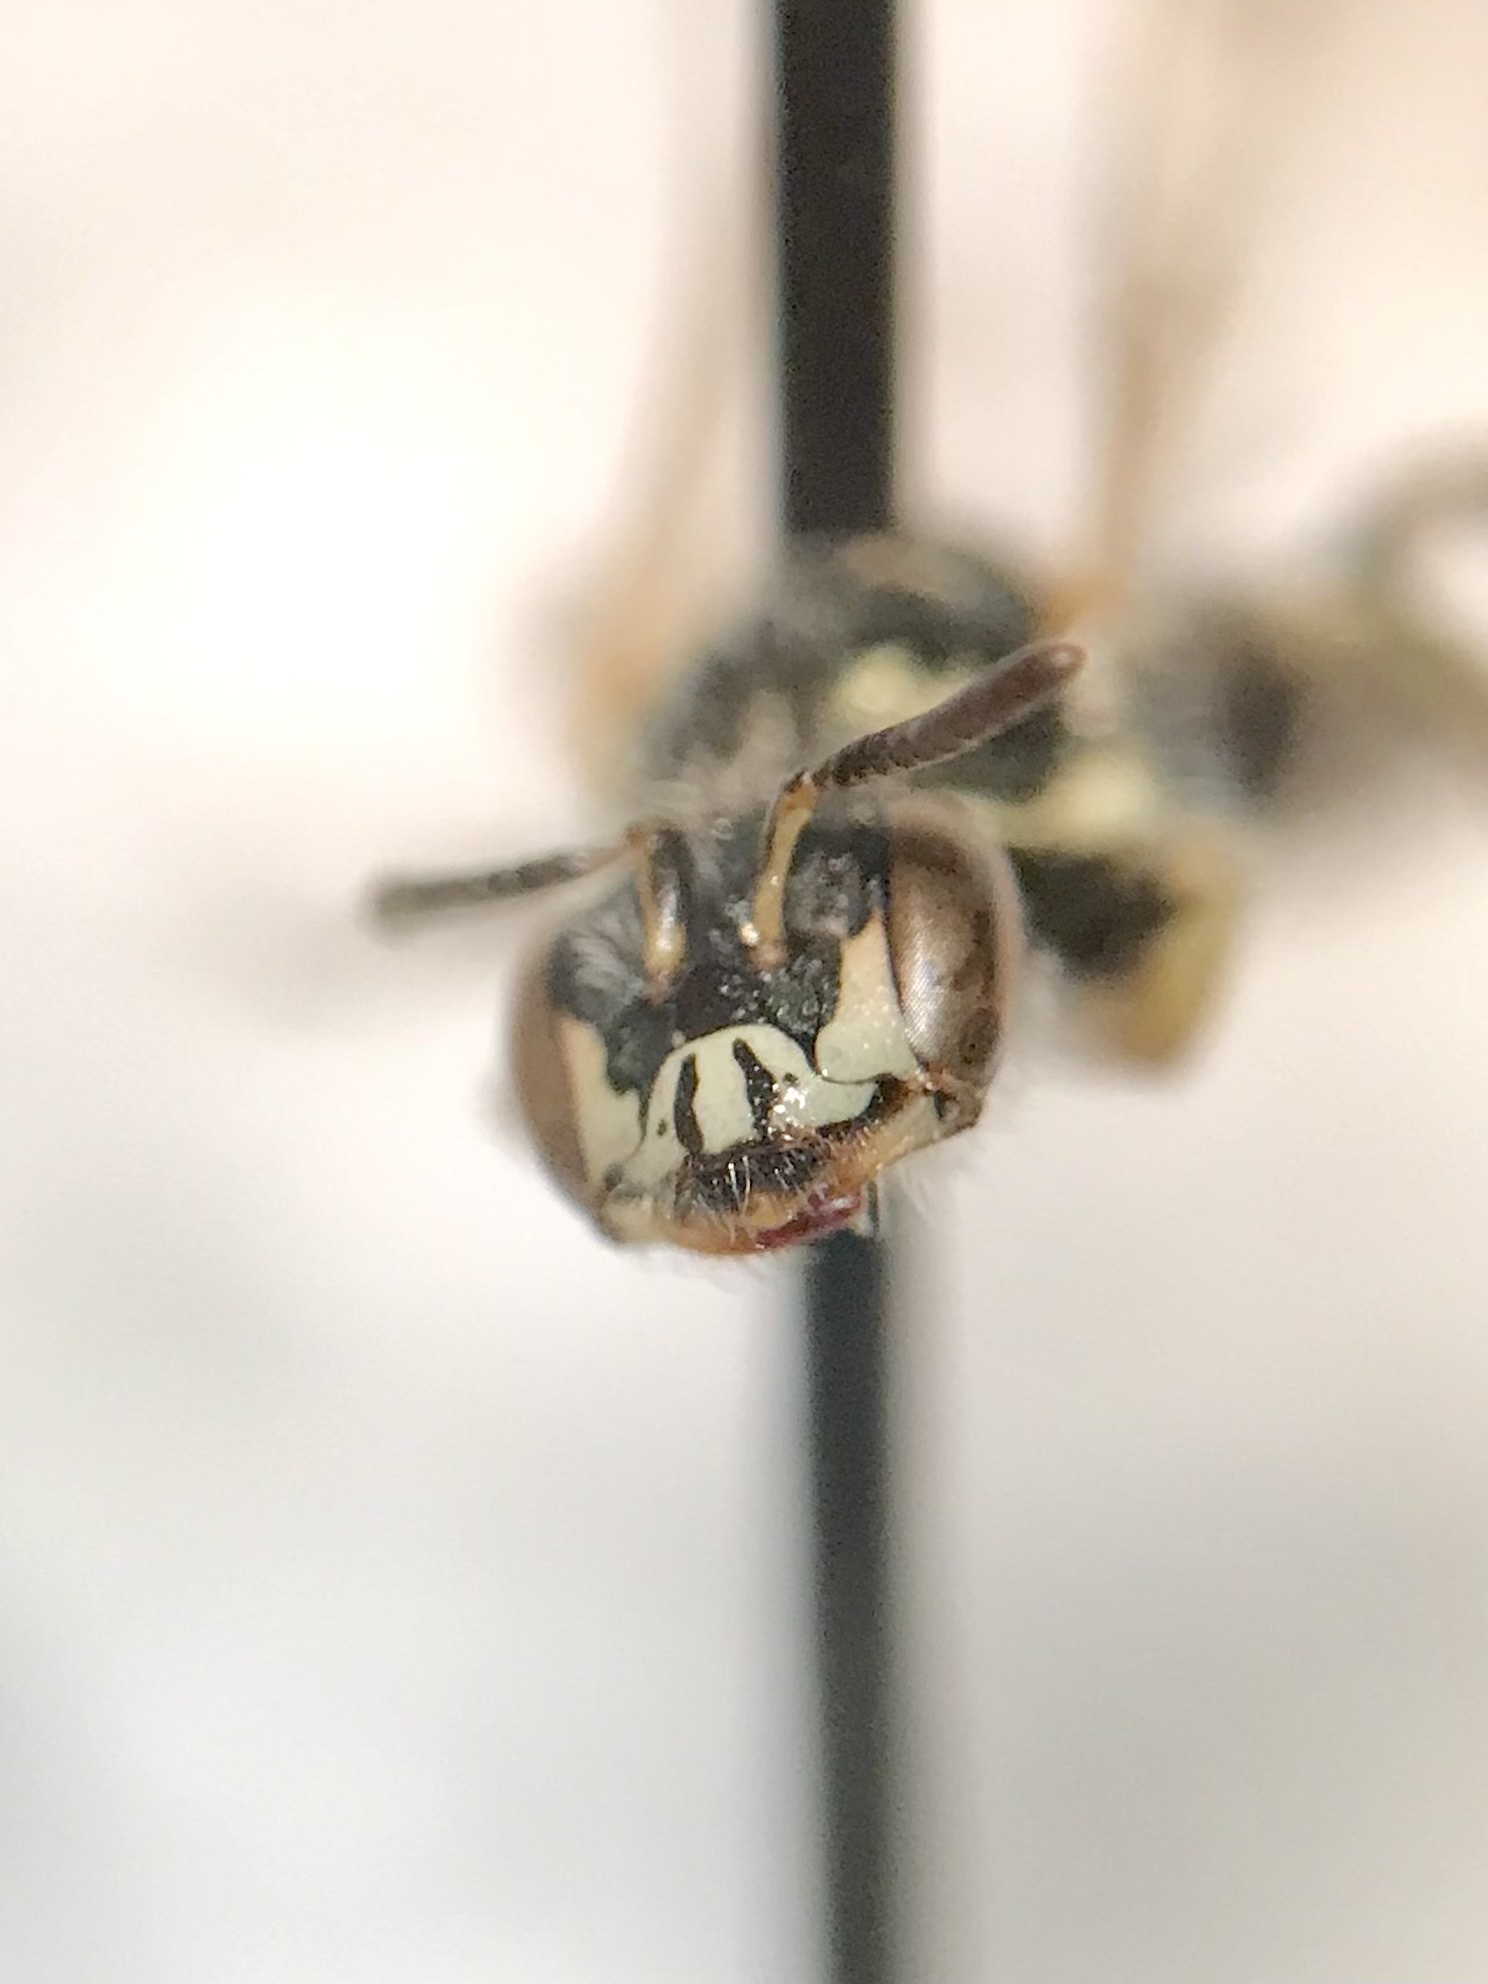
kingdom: Animalia
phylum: Arthropoda
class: Insecta
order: Hymenoptera
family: Andrenidae
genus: Perdita
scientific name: Perdita bruneri
